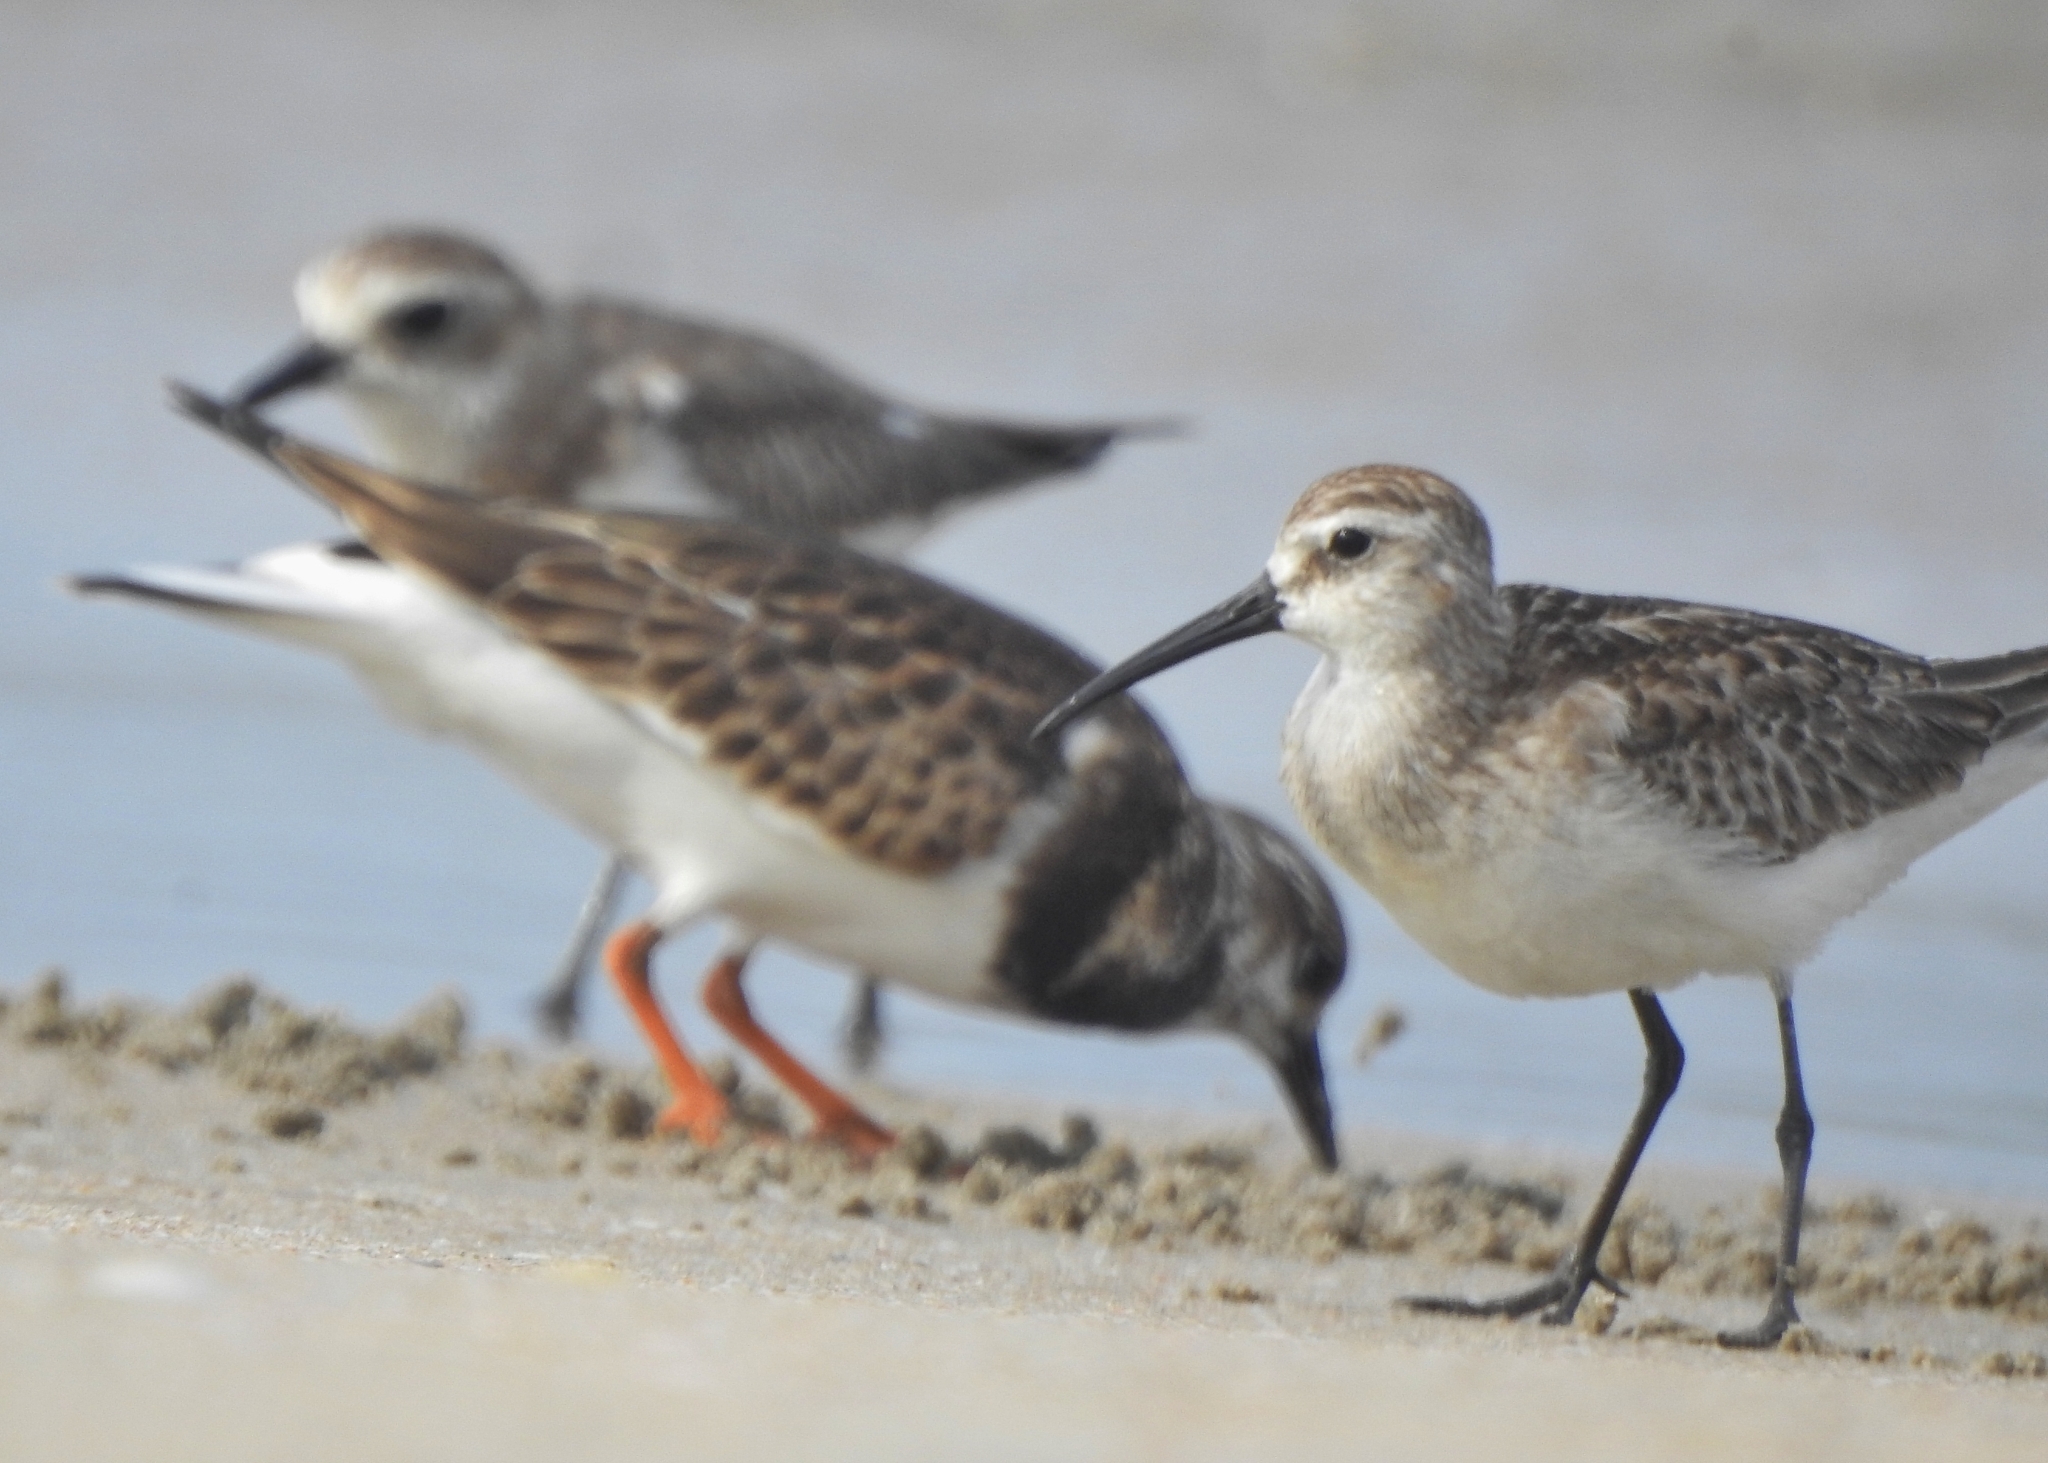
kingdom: Animalia
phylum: Chordata
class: Aves
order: Charadriiformes
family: Scolopacidae
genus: Calidris
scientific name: Calidris ferruginea
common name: Curlew sandpiper
